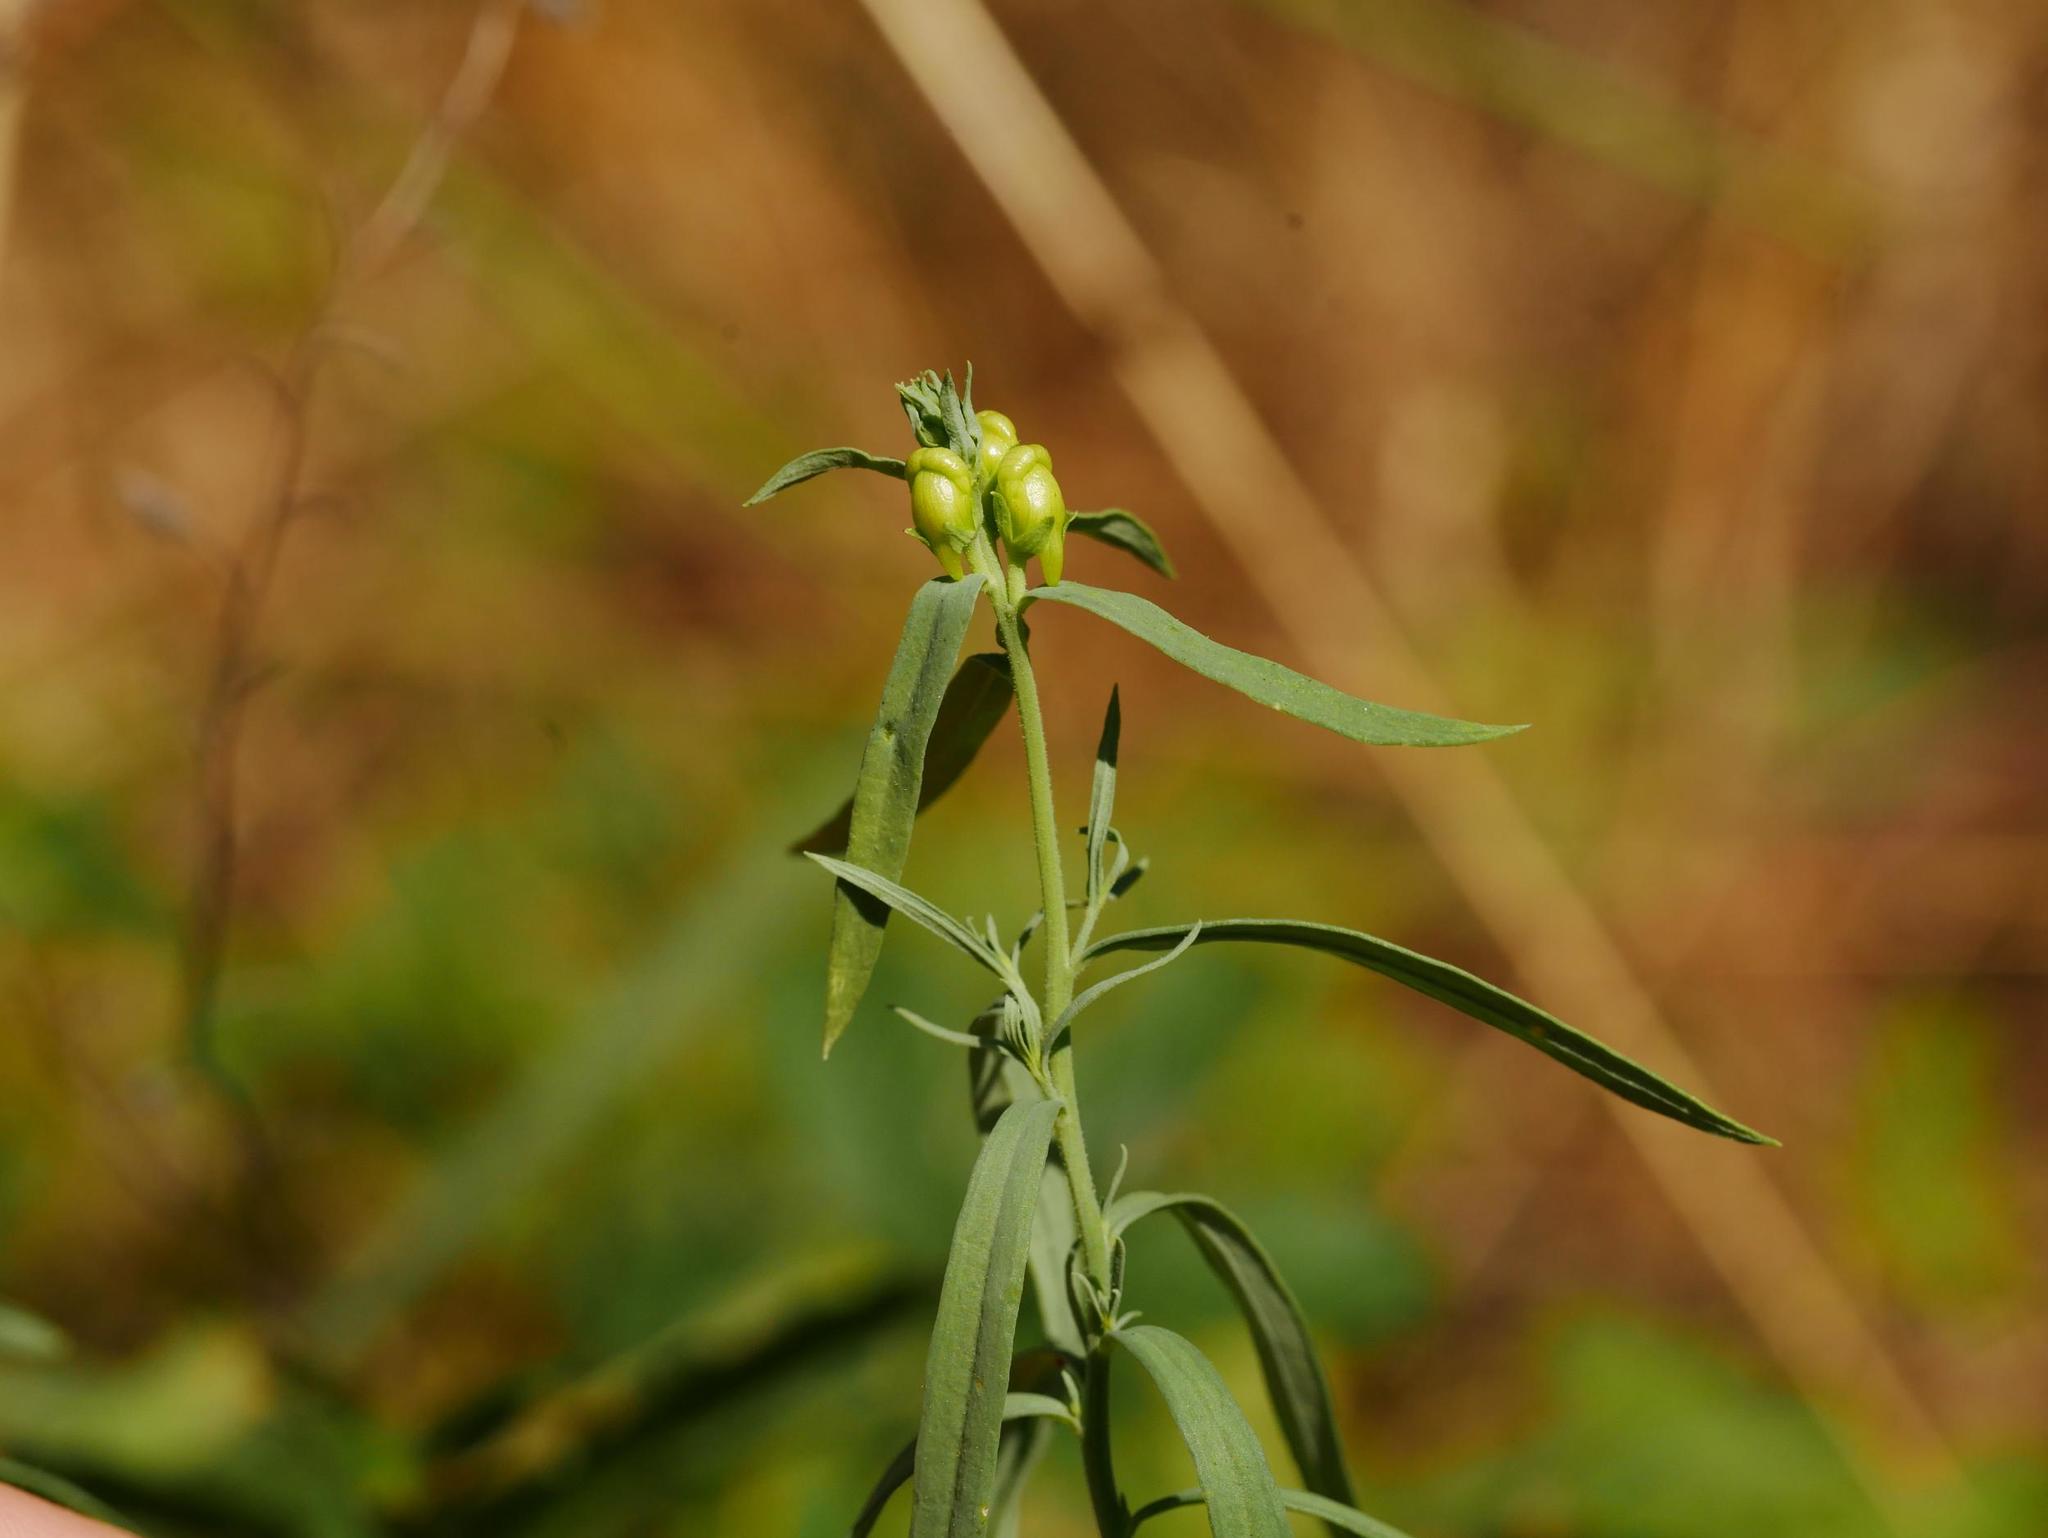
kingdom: Plantae
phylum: Tracheophyta
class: Magnoliopsida
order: Lamiales
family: Plantaginaceae
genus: Linaria
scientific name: Linaria vulgaris
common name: Butter and eggs
